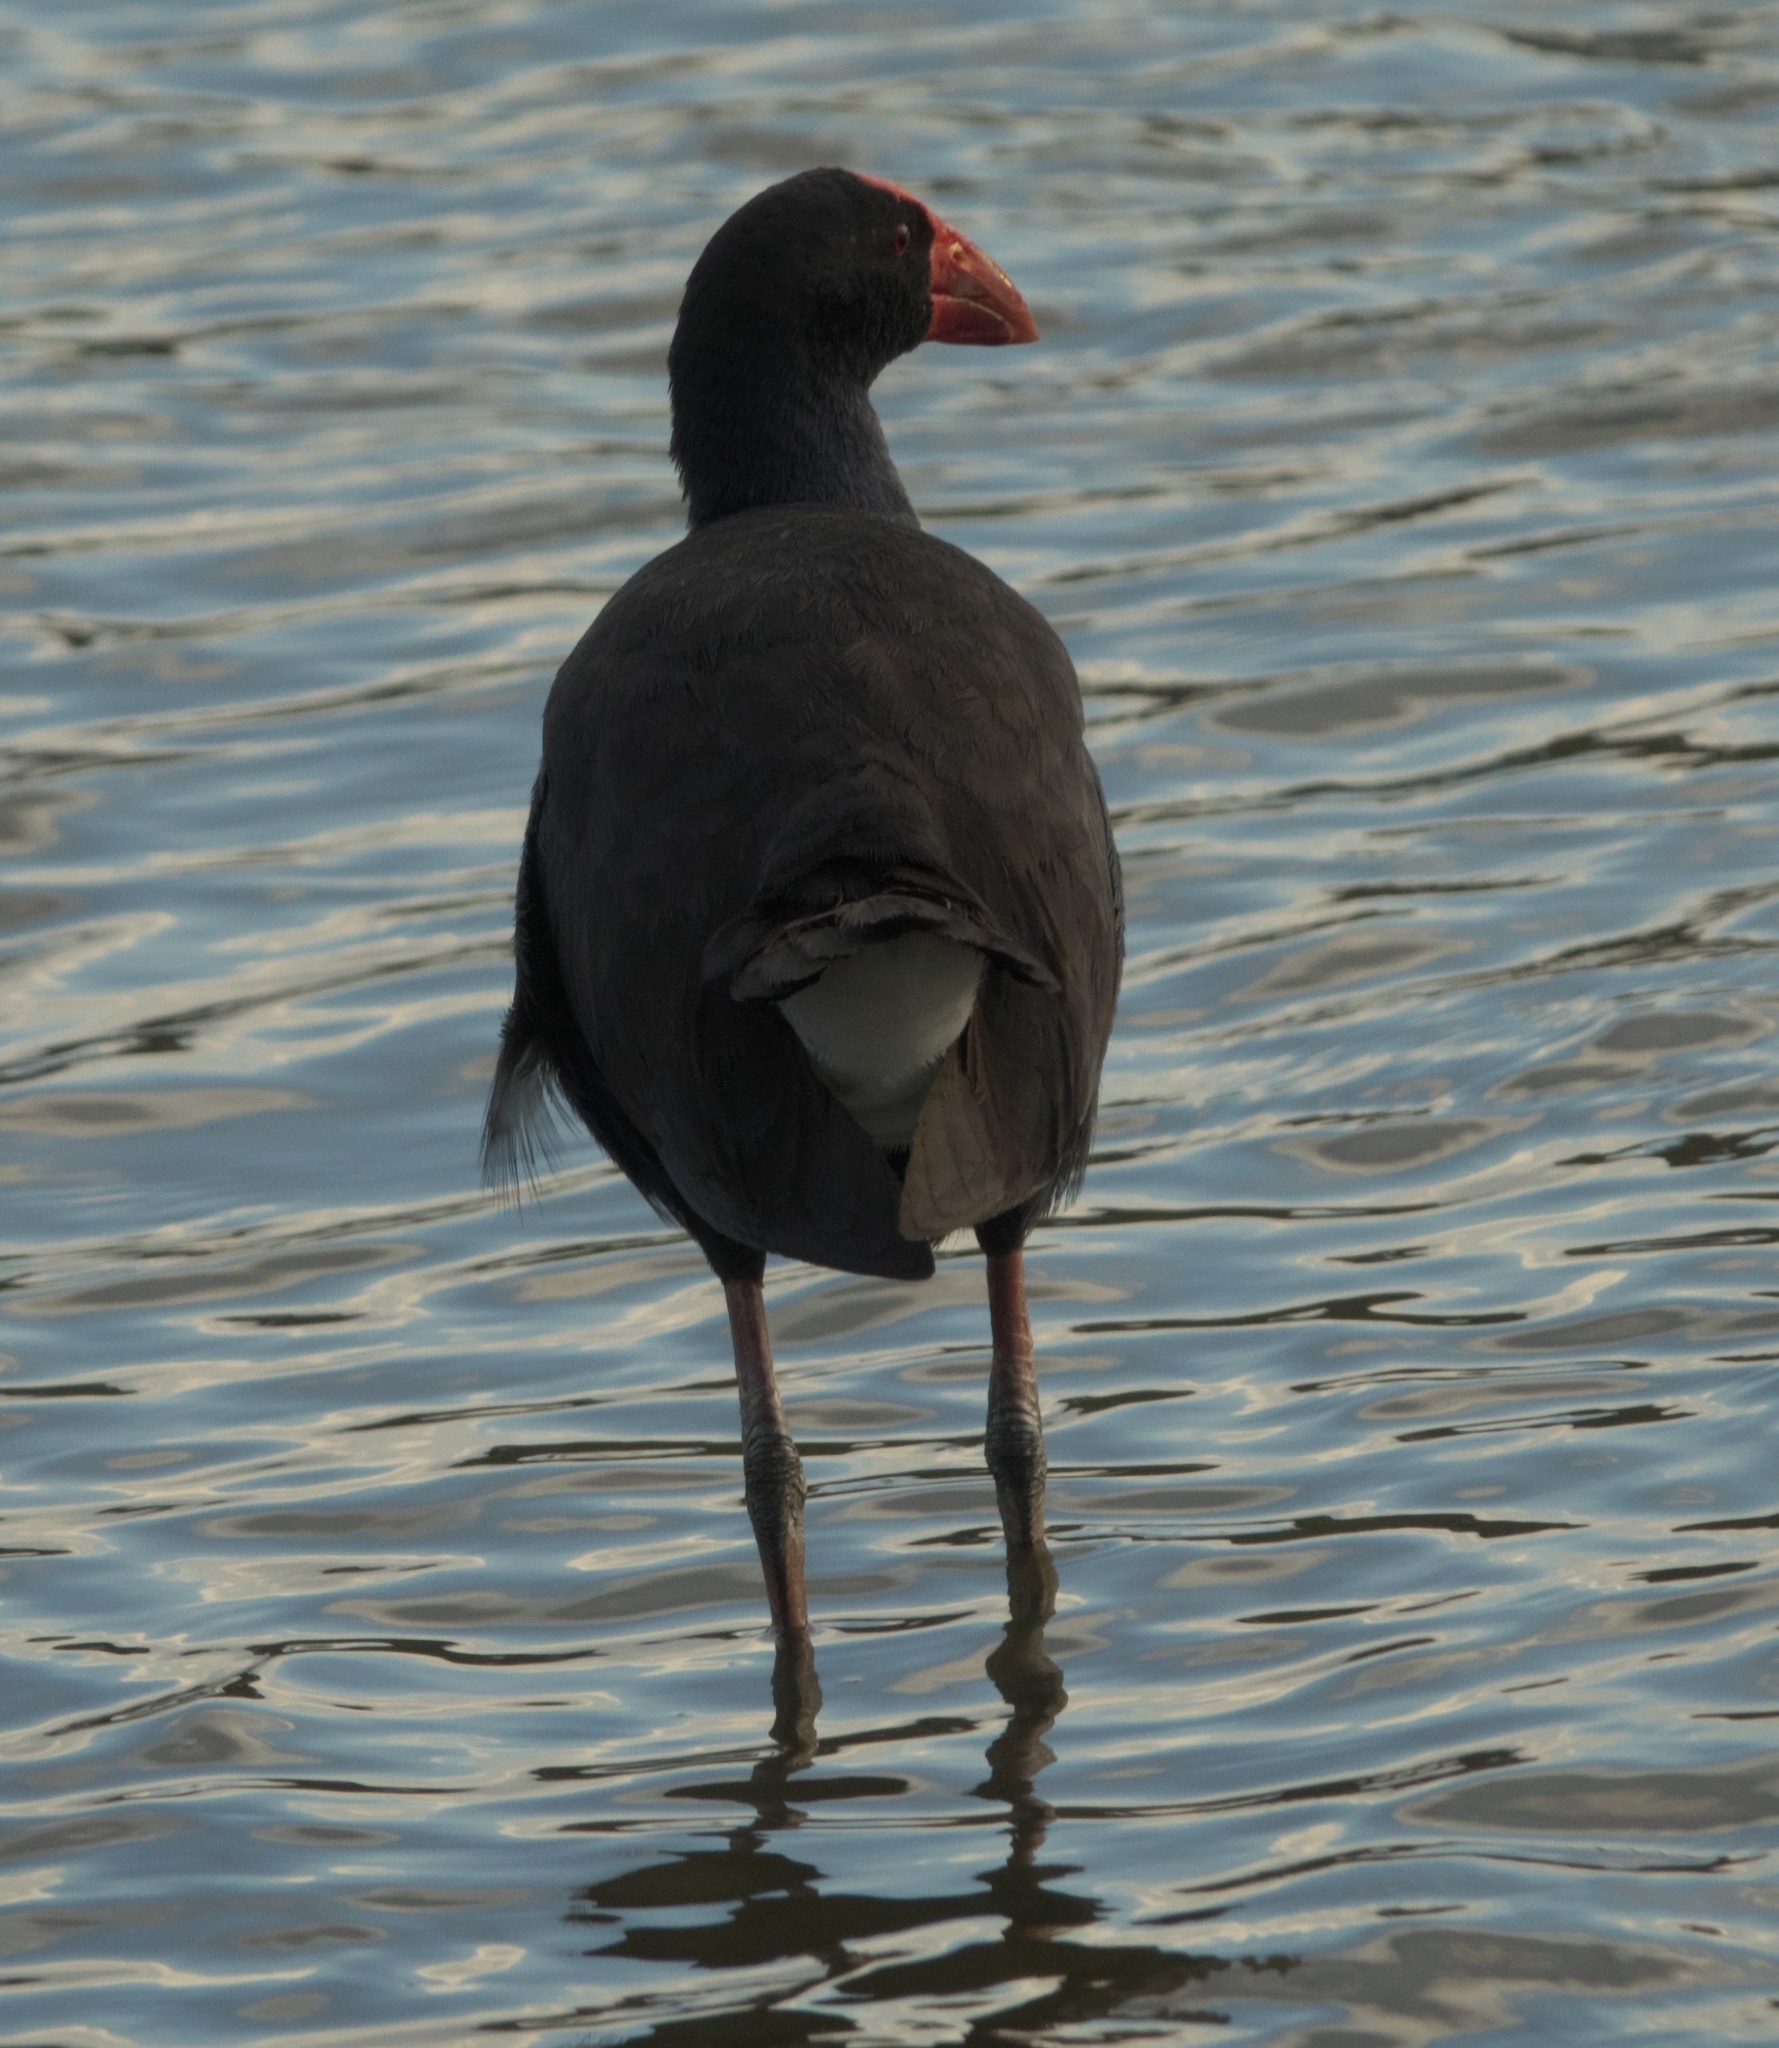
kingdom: Animalia
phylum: Chordata
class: Aves
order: Gruiformes
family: Rallidae
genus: Porphyrio
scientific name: Porphyrio melanotus
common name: Australasian swamphen
